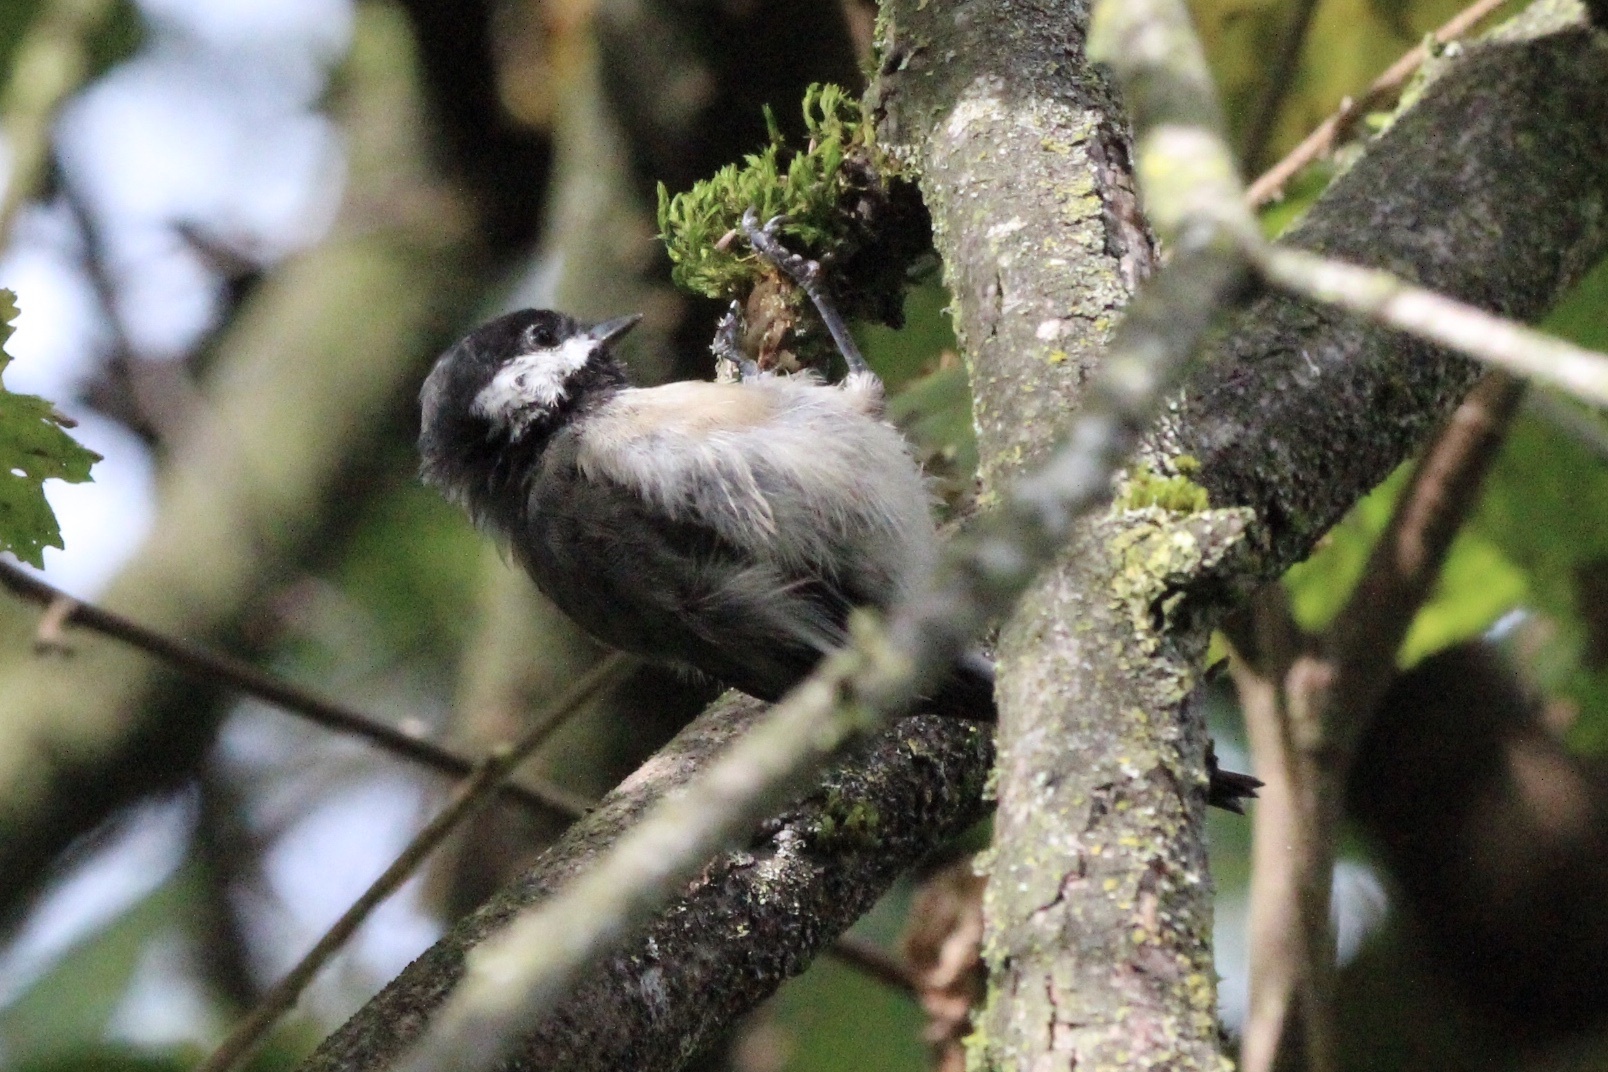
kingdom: Animalia
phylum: Chordata
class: Aves
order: Passeriformes
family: Paridae
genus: Poecile
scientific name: Poecile atricapillus
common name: Black-capped chickadee
